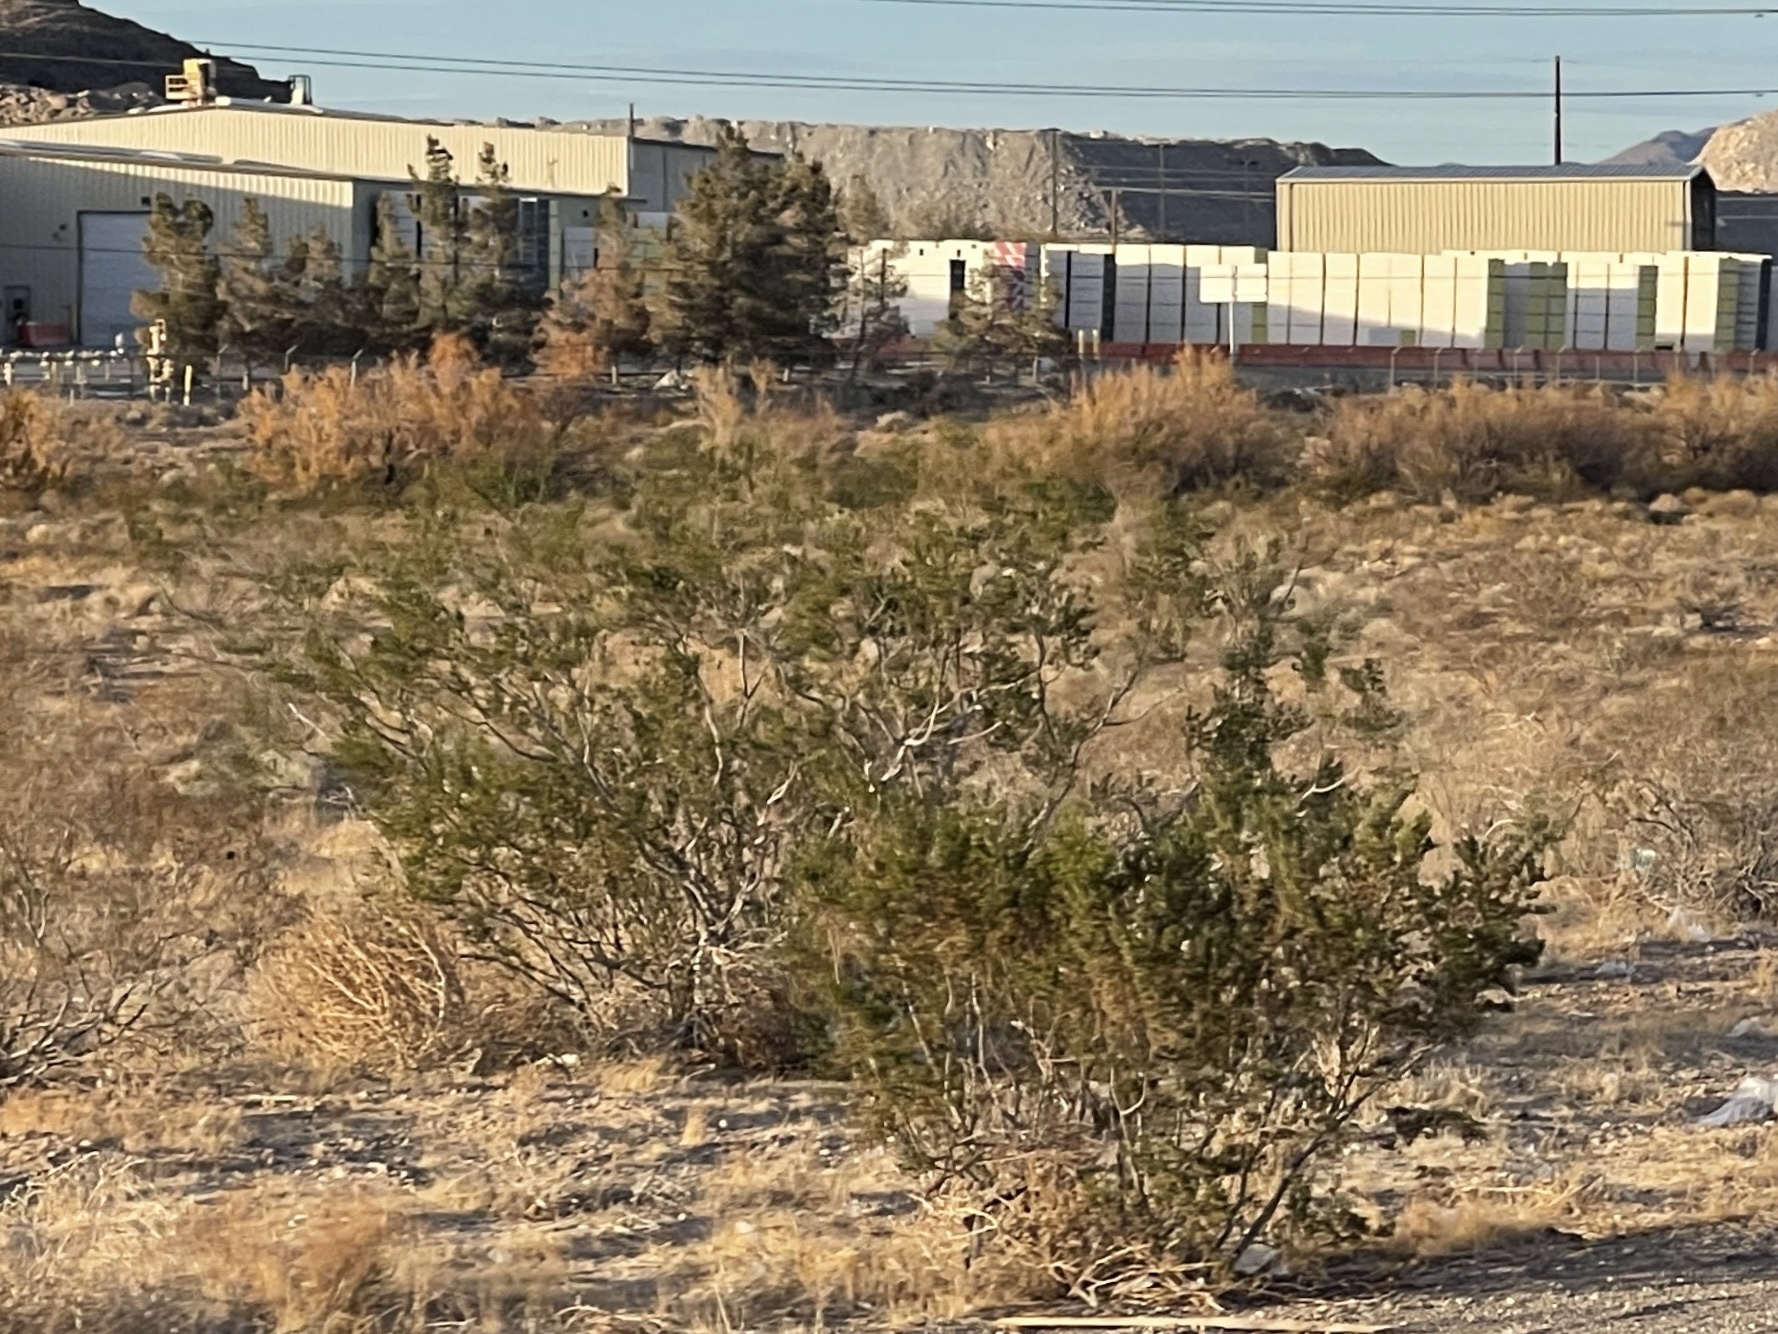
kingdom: Plantae
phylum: Tracheophyta
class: Magnoliopsida
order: Zygophyllales
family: Zygophyllaceae
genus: Larrea
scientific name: Larrea tridentata
